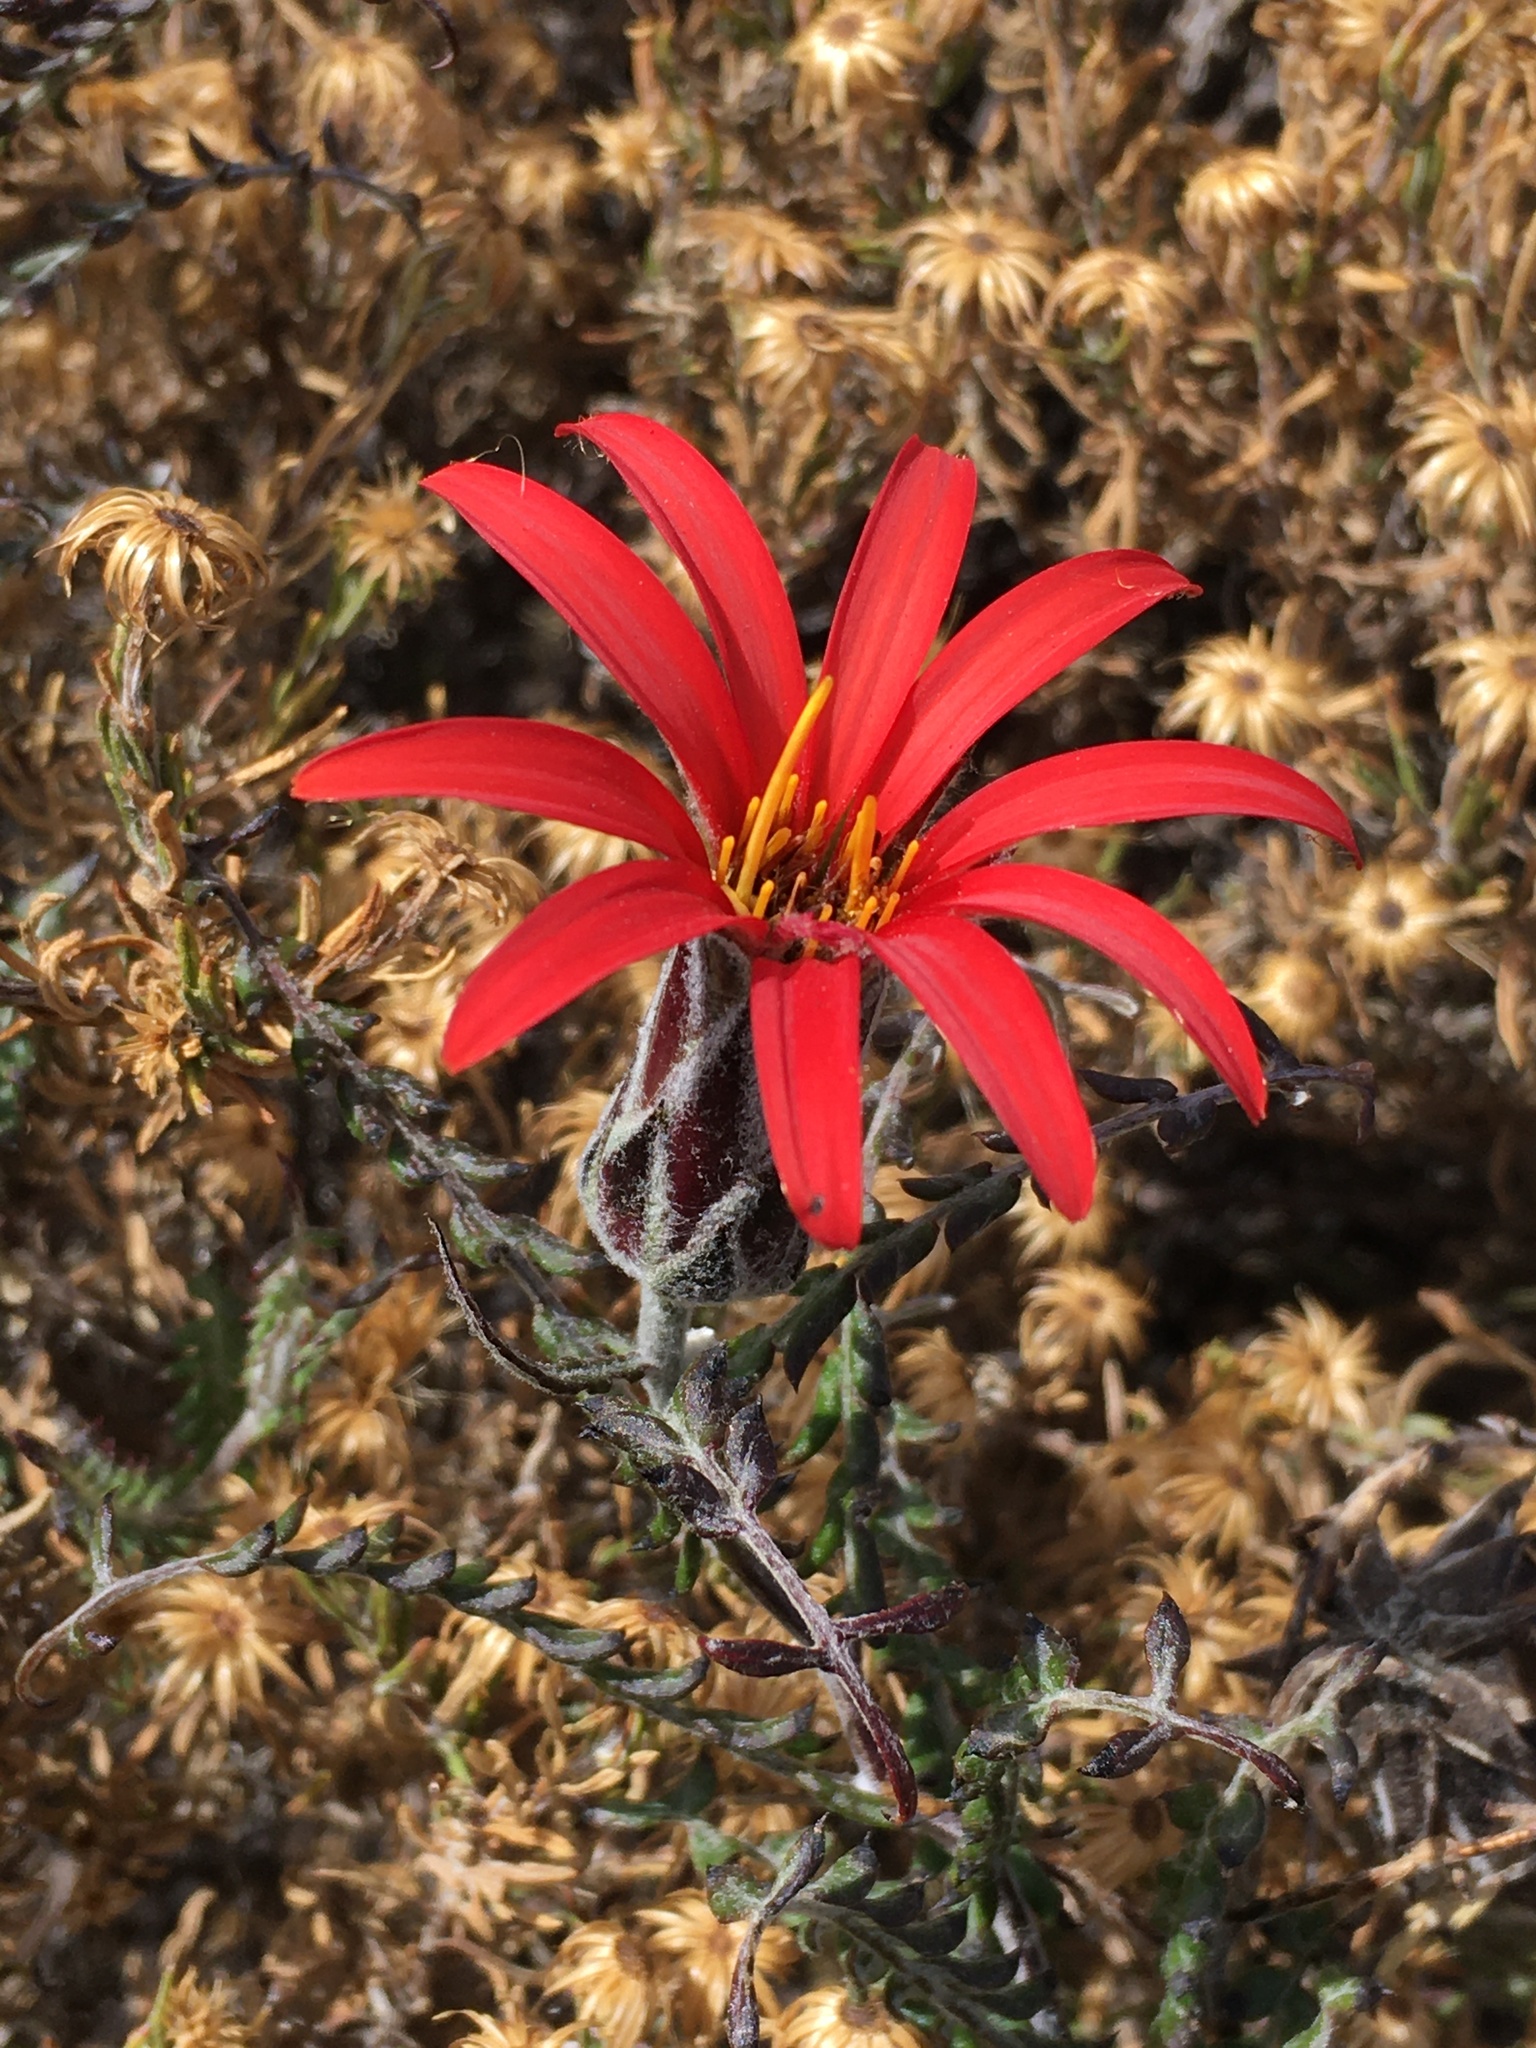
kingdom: Plantae
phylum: Tracheophyta
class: Magnoliopsida
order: Asterales
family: Asteraceae
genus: Mutisia
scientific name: Mutisia hamata
